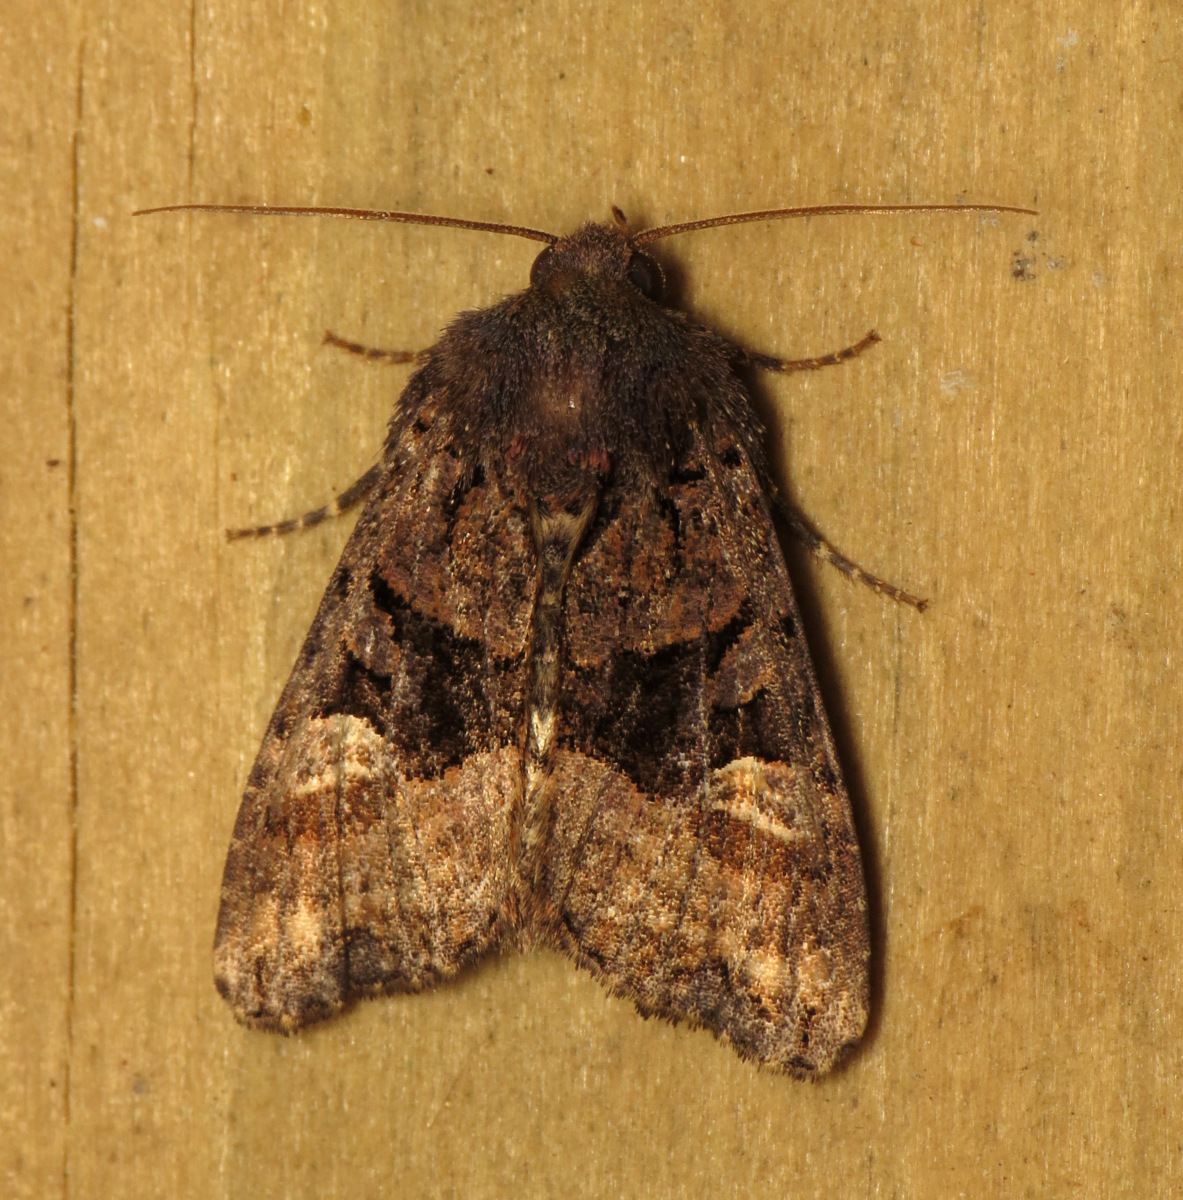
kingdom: Animalia
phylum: Arthropoda
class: Insecta
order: Lepidoptera
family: Noctuidae
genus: Euplexia
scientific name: Euplexia benesimilis
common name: American angle shades
